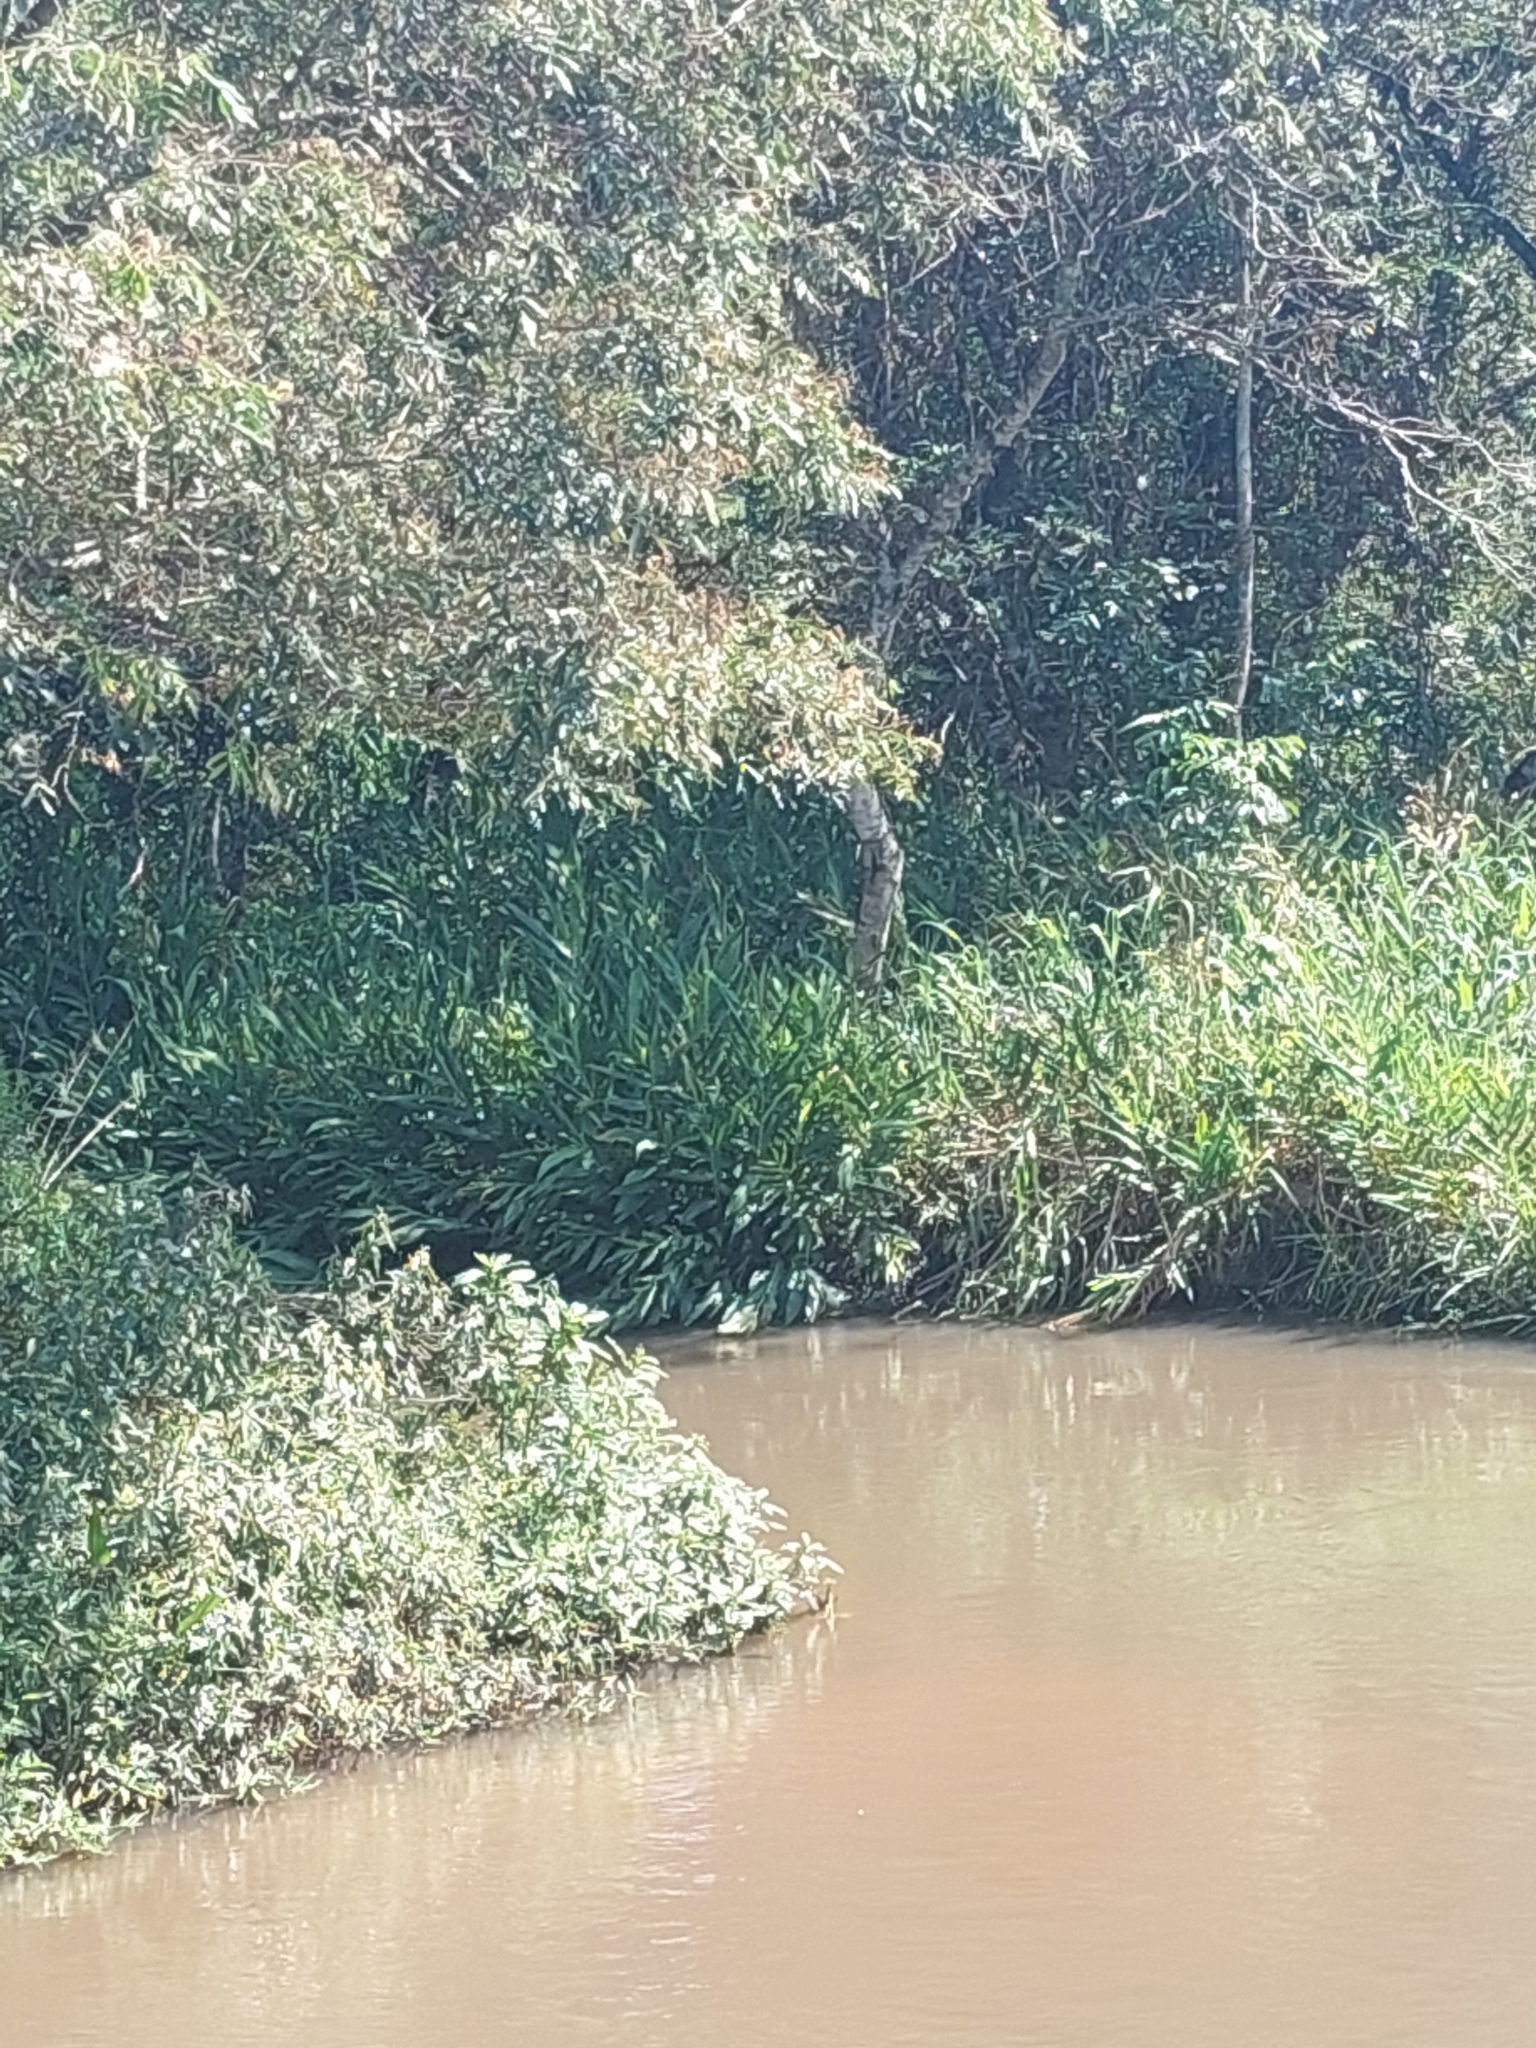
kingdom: Plantae
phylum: Tracheophyta
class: Liliopsida
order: Zingiberales
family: Zingiberaceae
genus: Hedychium
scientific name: Hedychium coronarium
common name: White garland-lily
